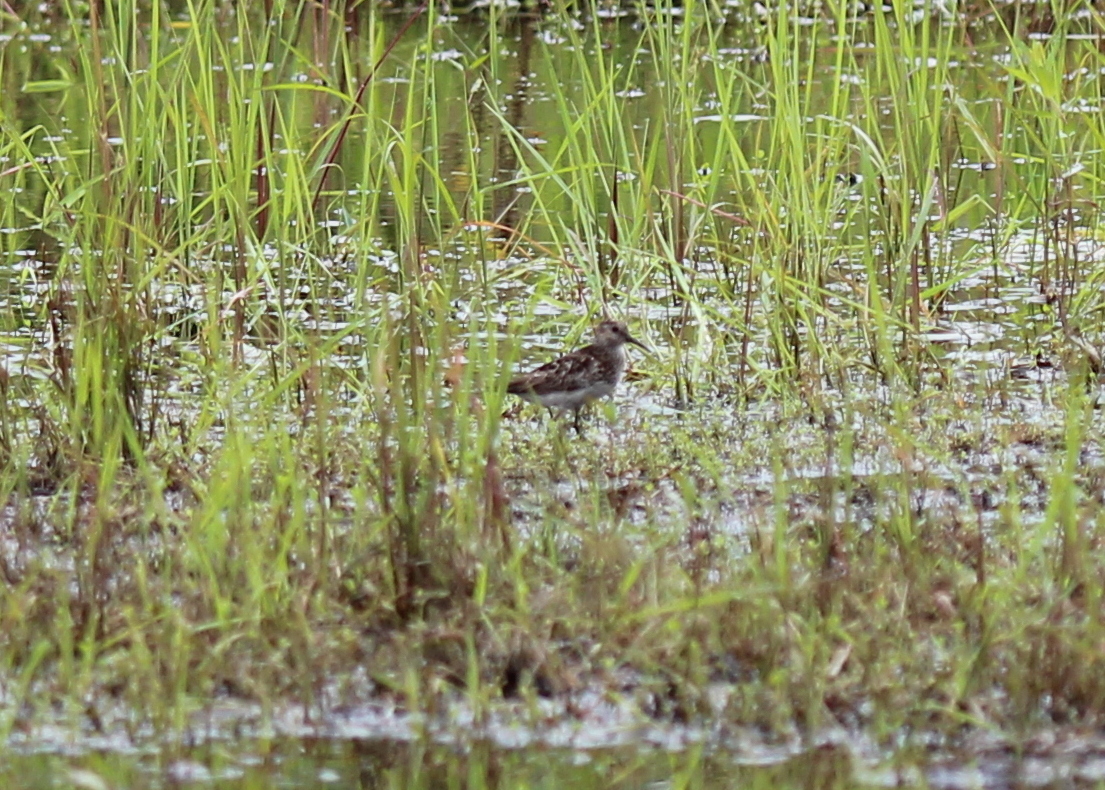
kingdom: Animalia
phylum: Chordata
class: Aves
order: Charadriiformes
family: Scolopacidae
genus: Calidris
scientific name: Calidris minutilla
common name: Least sandpiper
